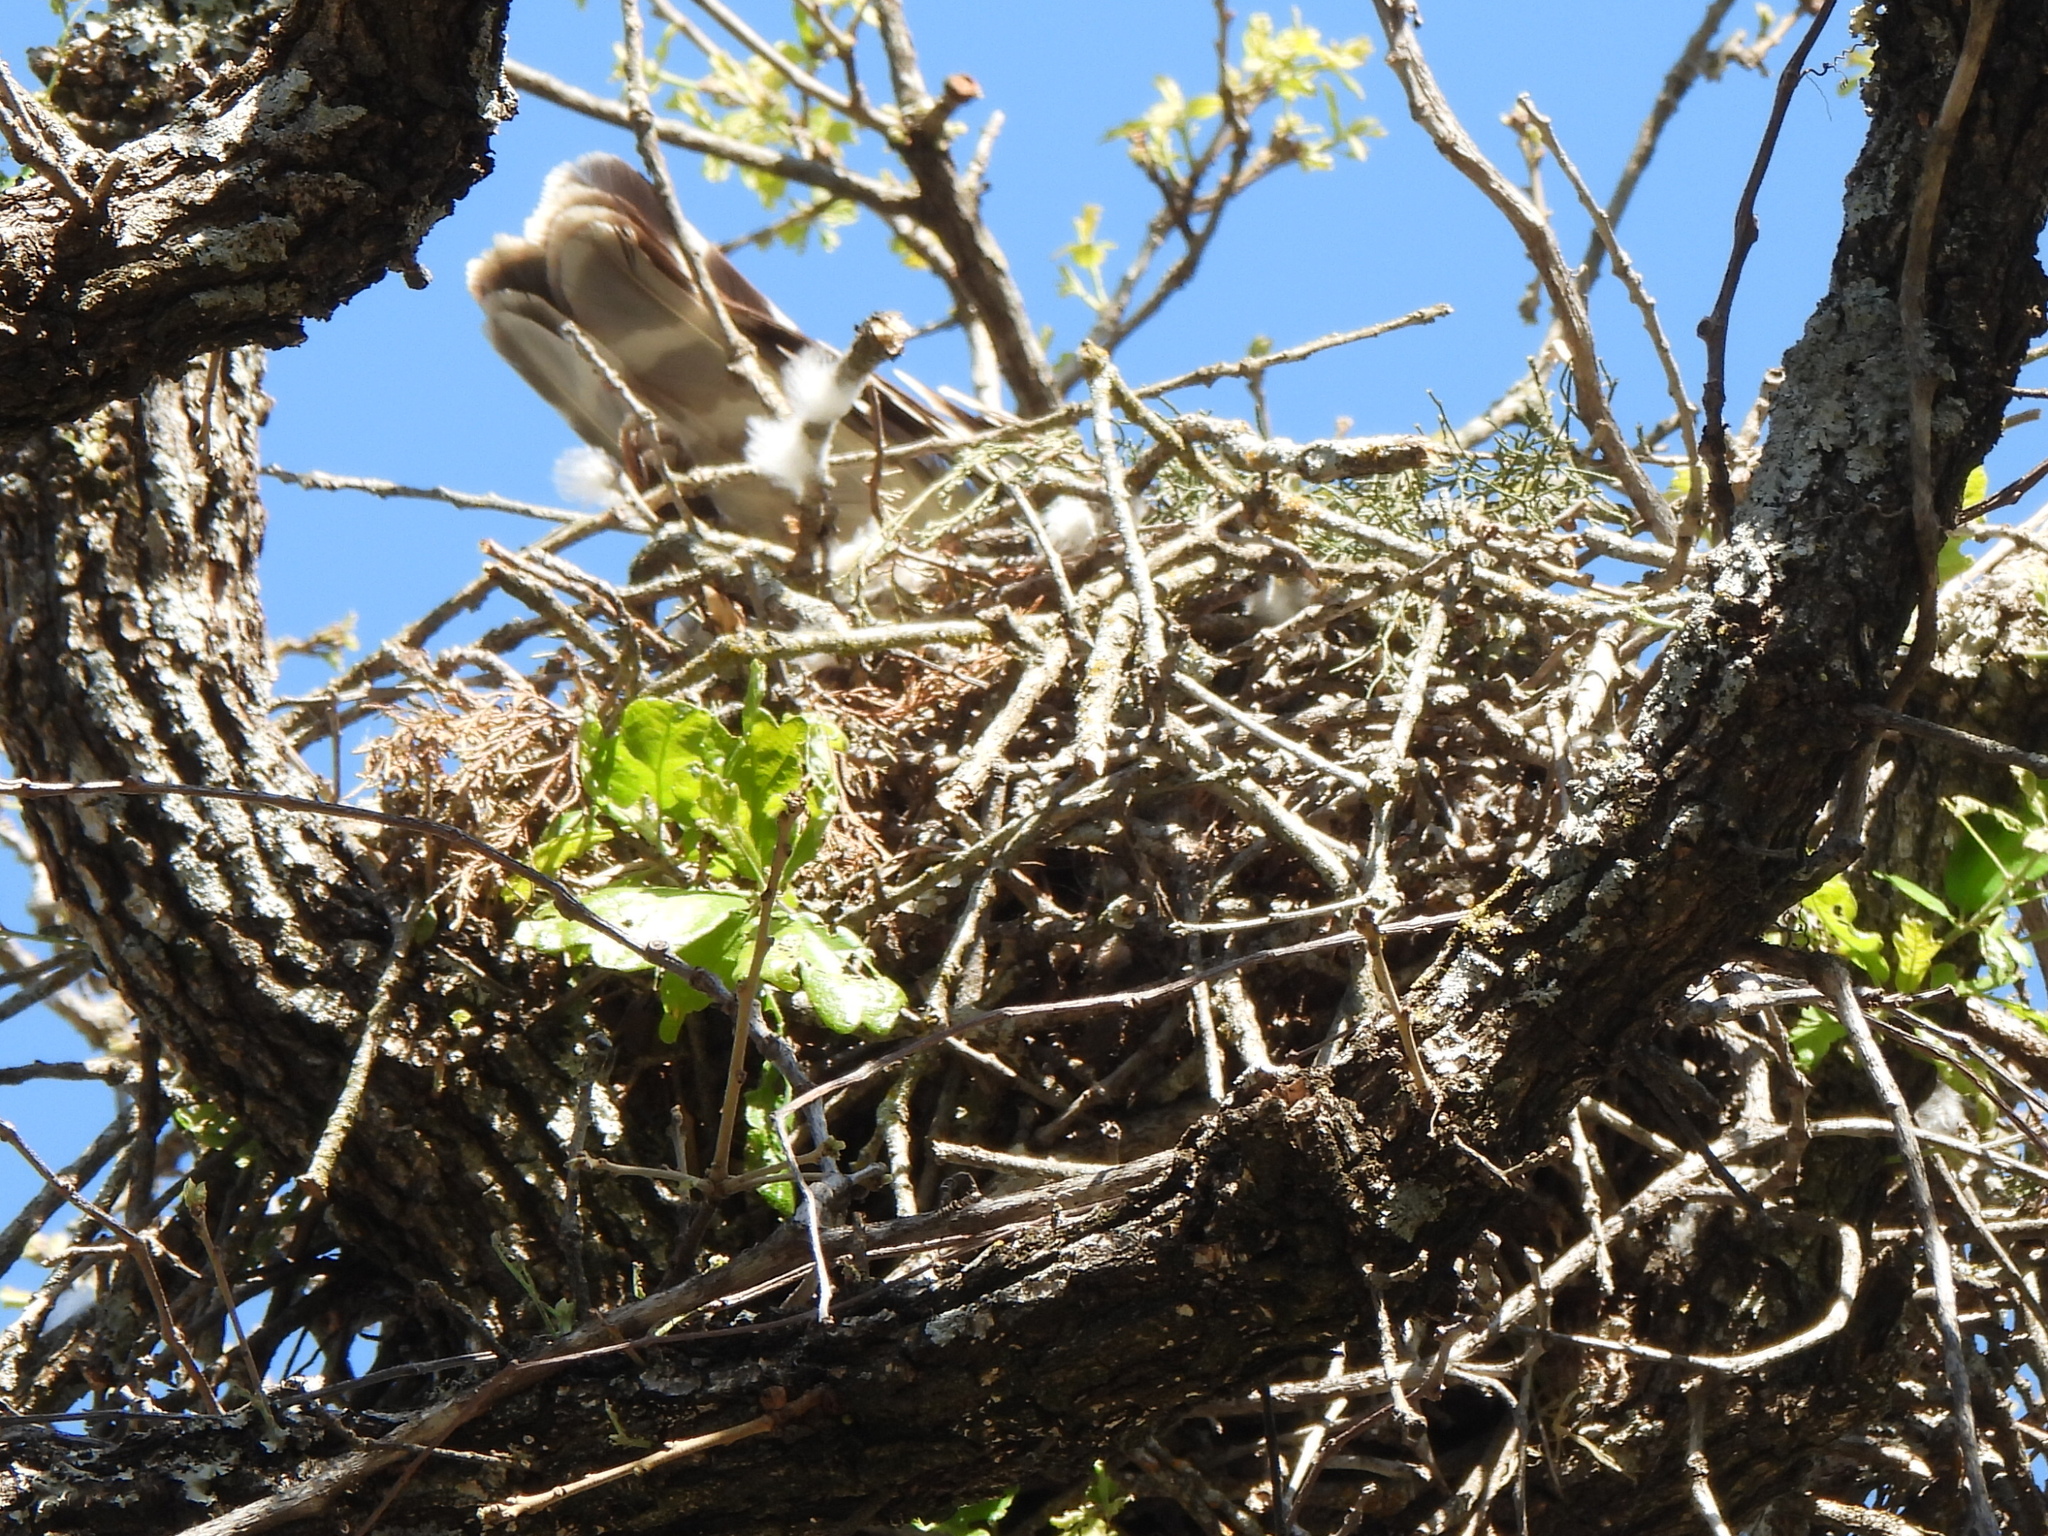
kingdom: Animalia
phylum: Chordata
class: Aves
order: Accipitriformes
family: Accipitridae
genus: Buteo
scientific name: Buteo lineatus
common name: Red-shouldered hawk
